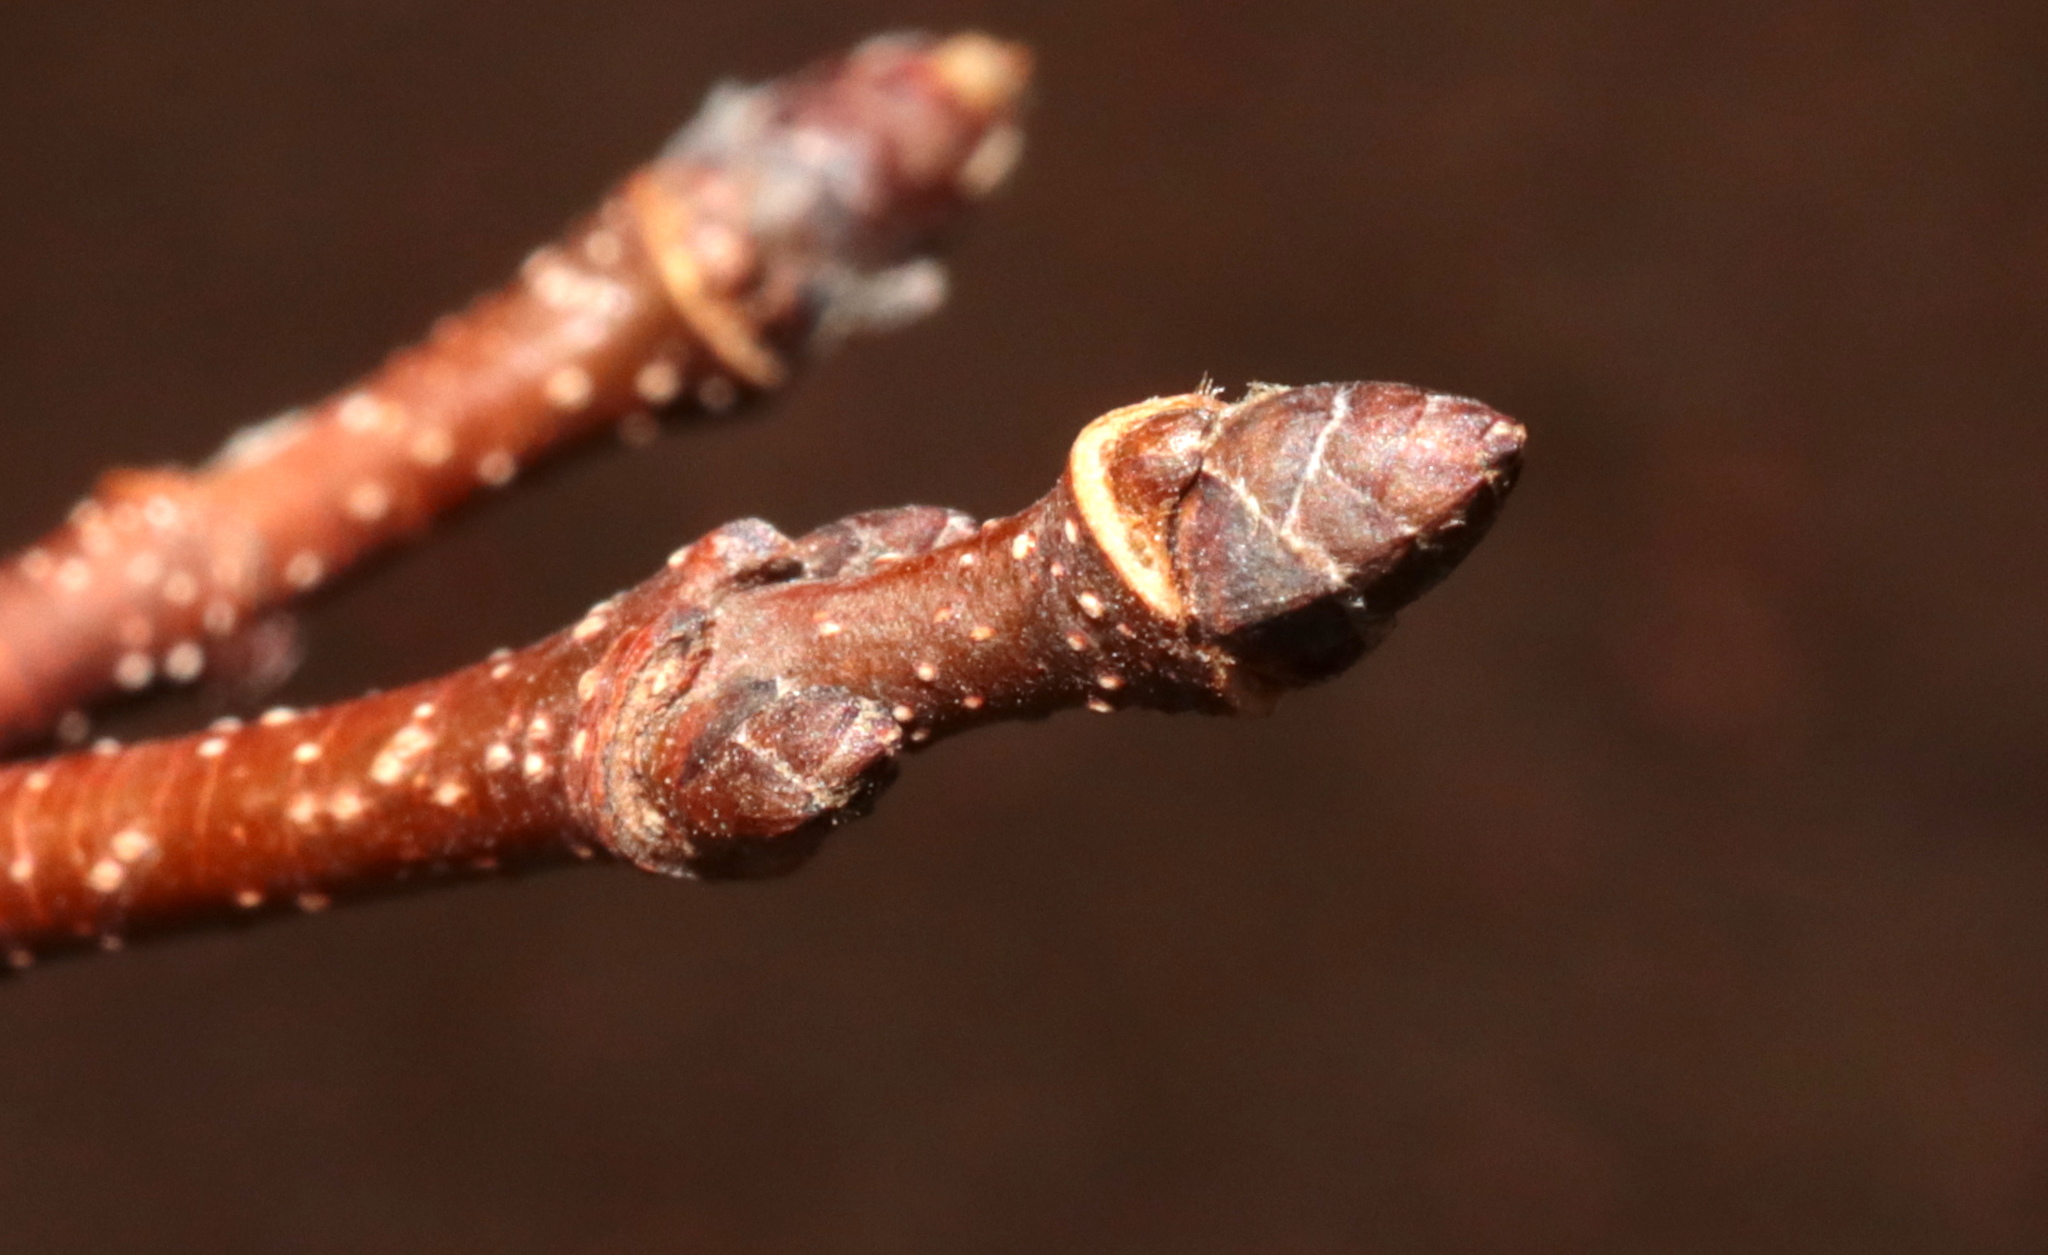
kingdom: Plantae
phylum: Tracheophyta
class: Magnoliopsida
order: Sapindales
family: Sapindaceae
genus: Acer
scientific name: Acer saccharum
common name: Sugar maple
